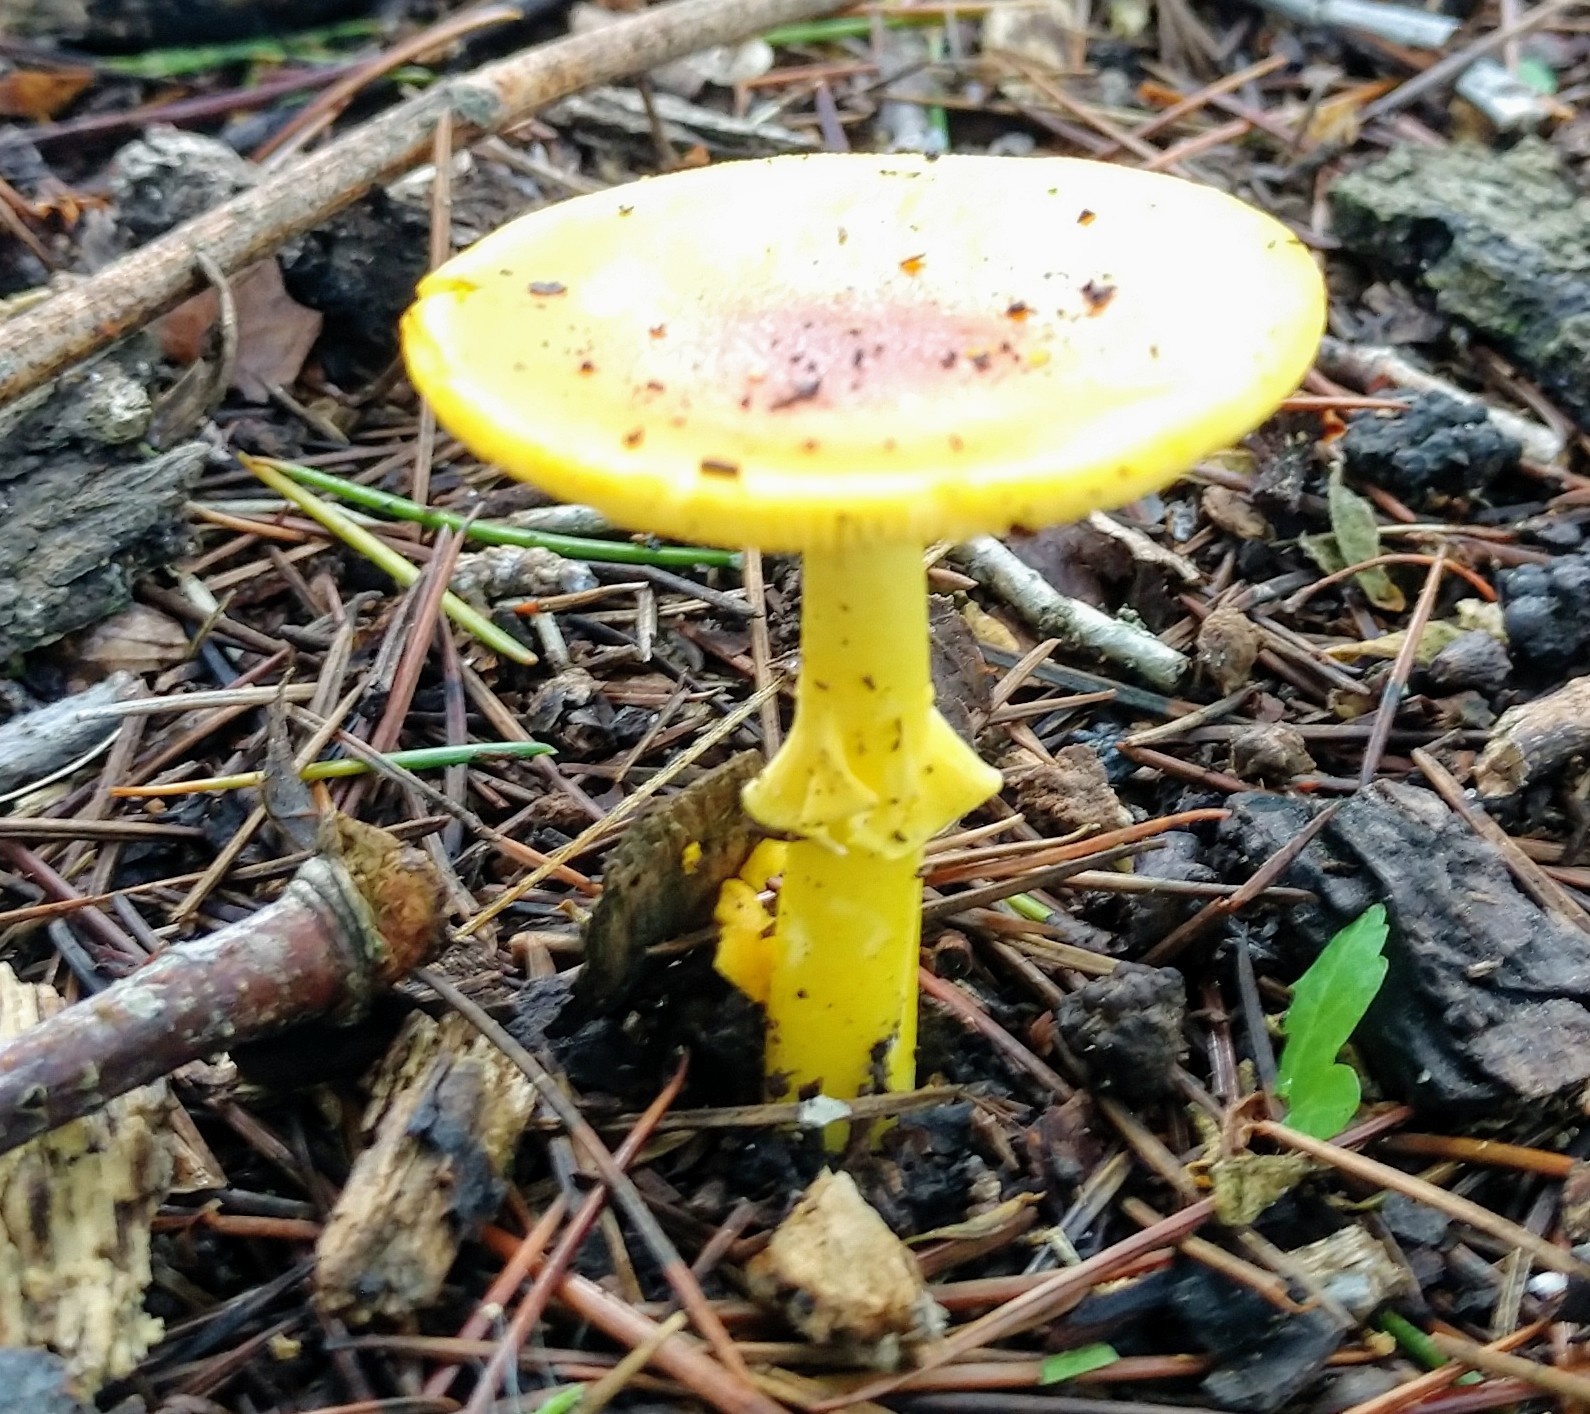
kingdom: Fungi
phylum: Basidiomycota
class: Agaricomycetes
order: Agaricales
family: Amanitaceae
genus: Amanita
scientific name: Amanita flavoconia
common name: Yellow patches
